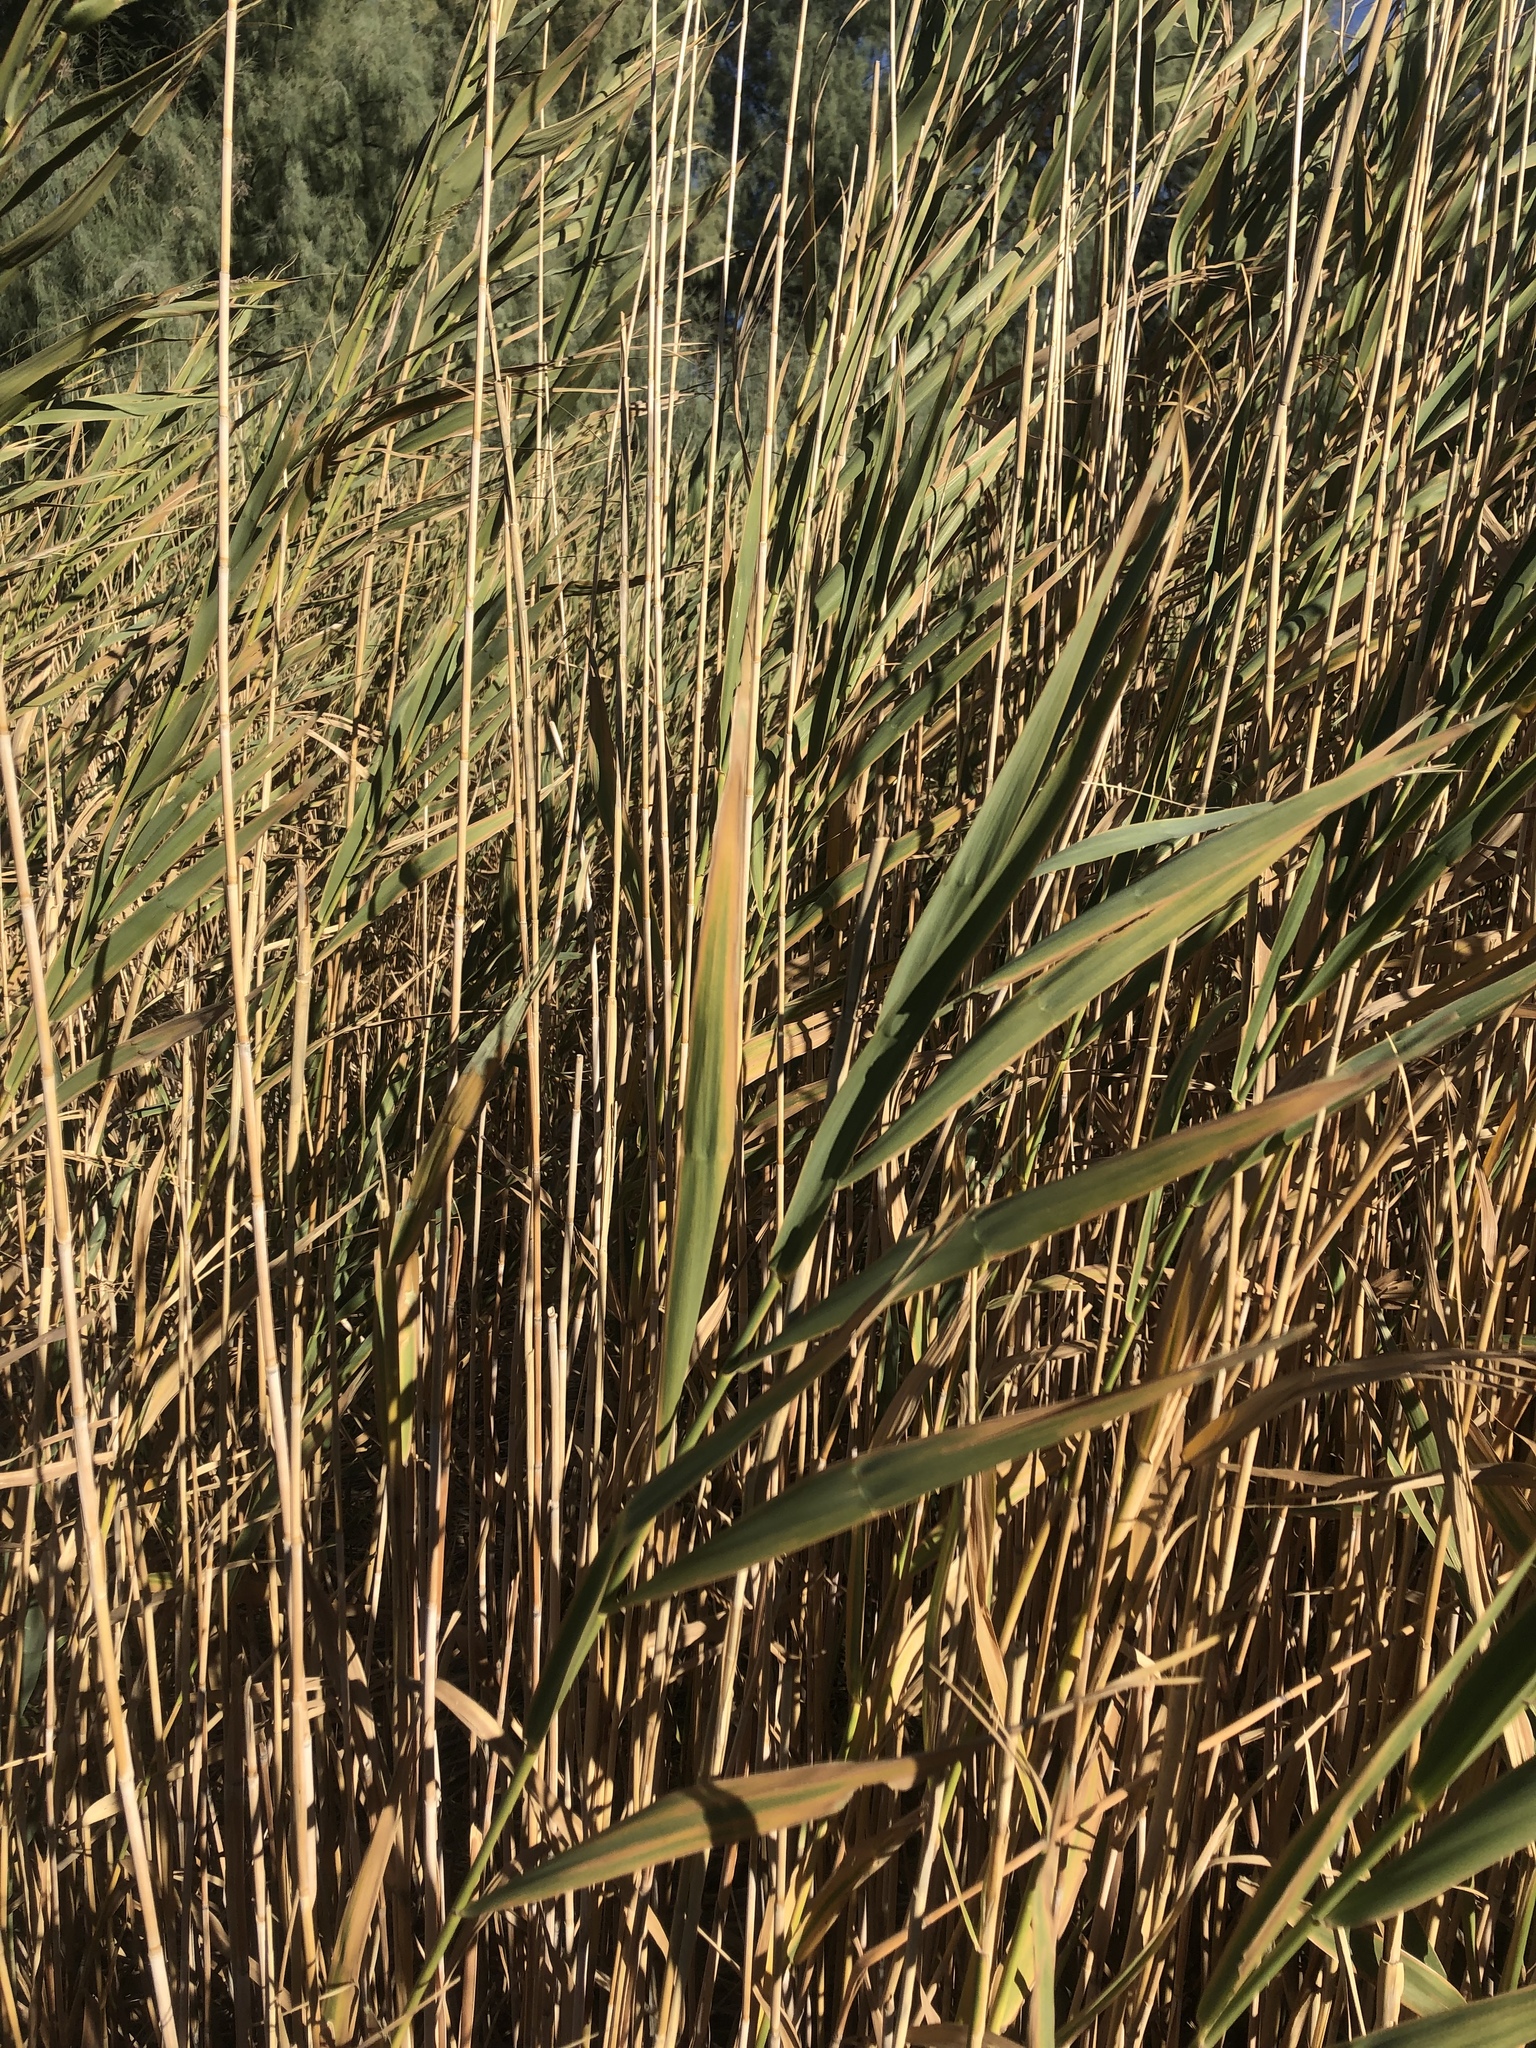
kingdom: Plantae
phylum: Tracheophyta
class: Liliopsida
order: Poales
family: Poaceae
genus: Phragmites
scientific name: Phragmites australis
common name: Common reed
